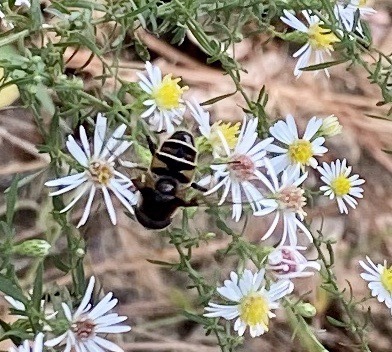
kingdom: Animalia
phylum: Arthropoda
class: Insecta
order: Diptera
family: Syrphidae
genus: Eristalis
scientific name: Eristalis dimidiata
